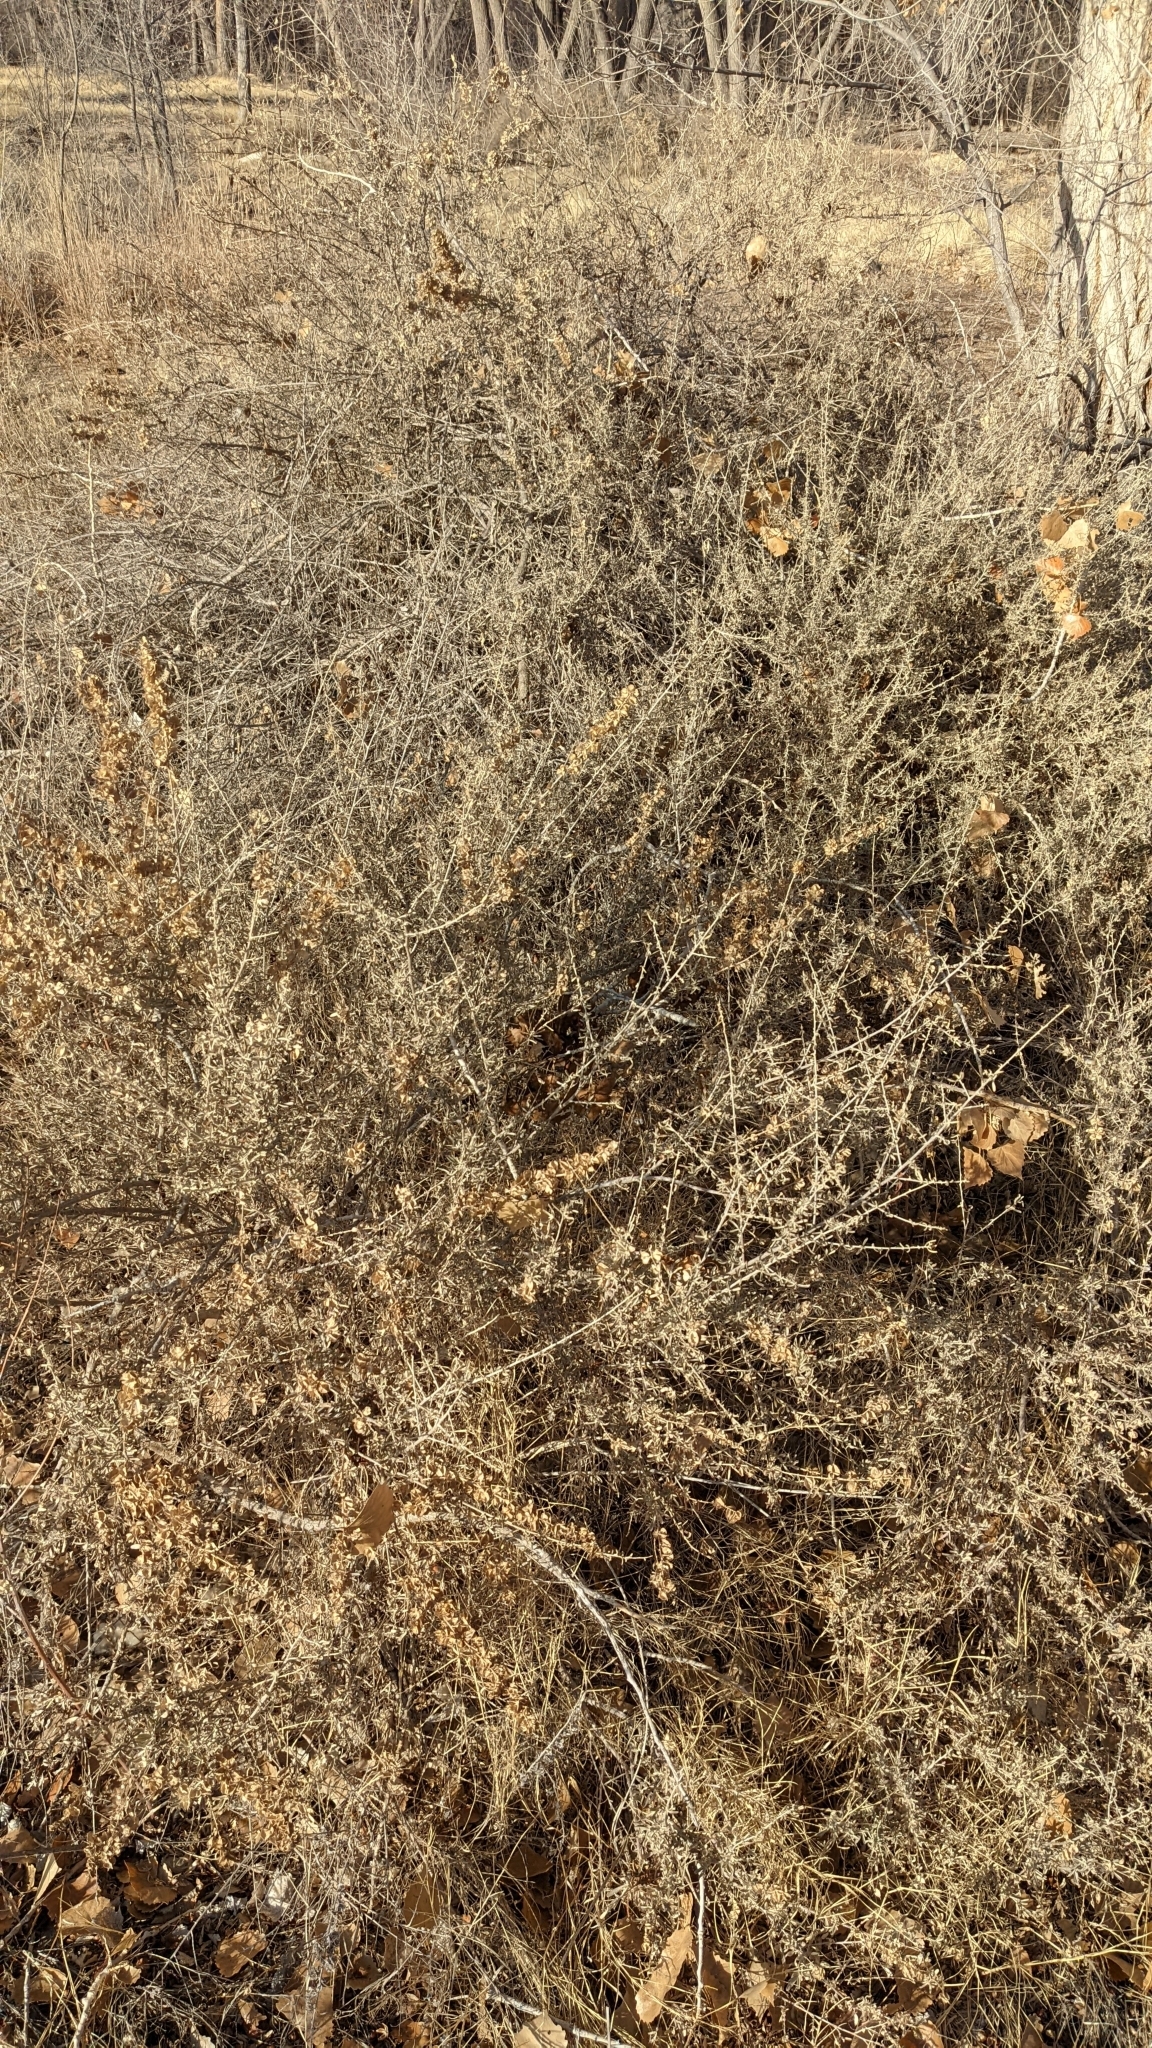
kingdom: Plantae
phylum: Tracheophyta
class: Magnoliopsida
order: Caryophyllales
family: Amaranthaceae
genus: Atriplex
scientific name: Atriplex canescens
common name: Four-wing saltbush
